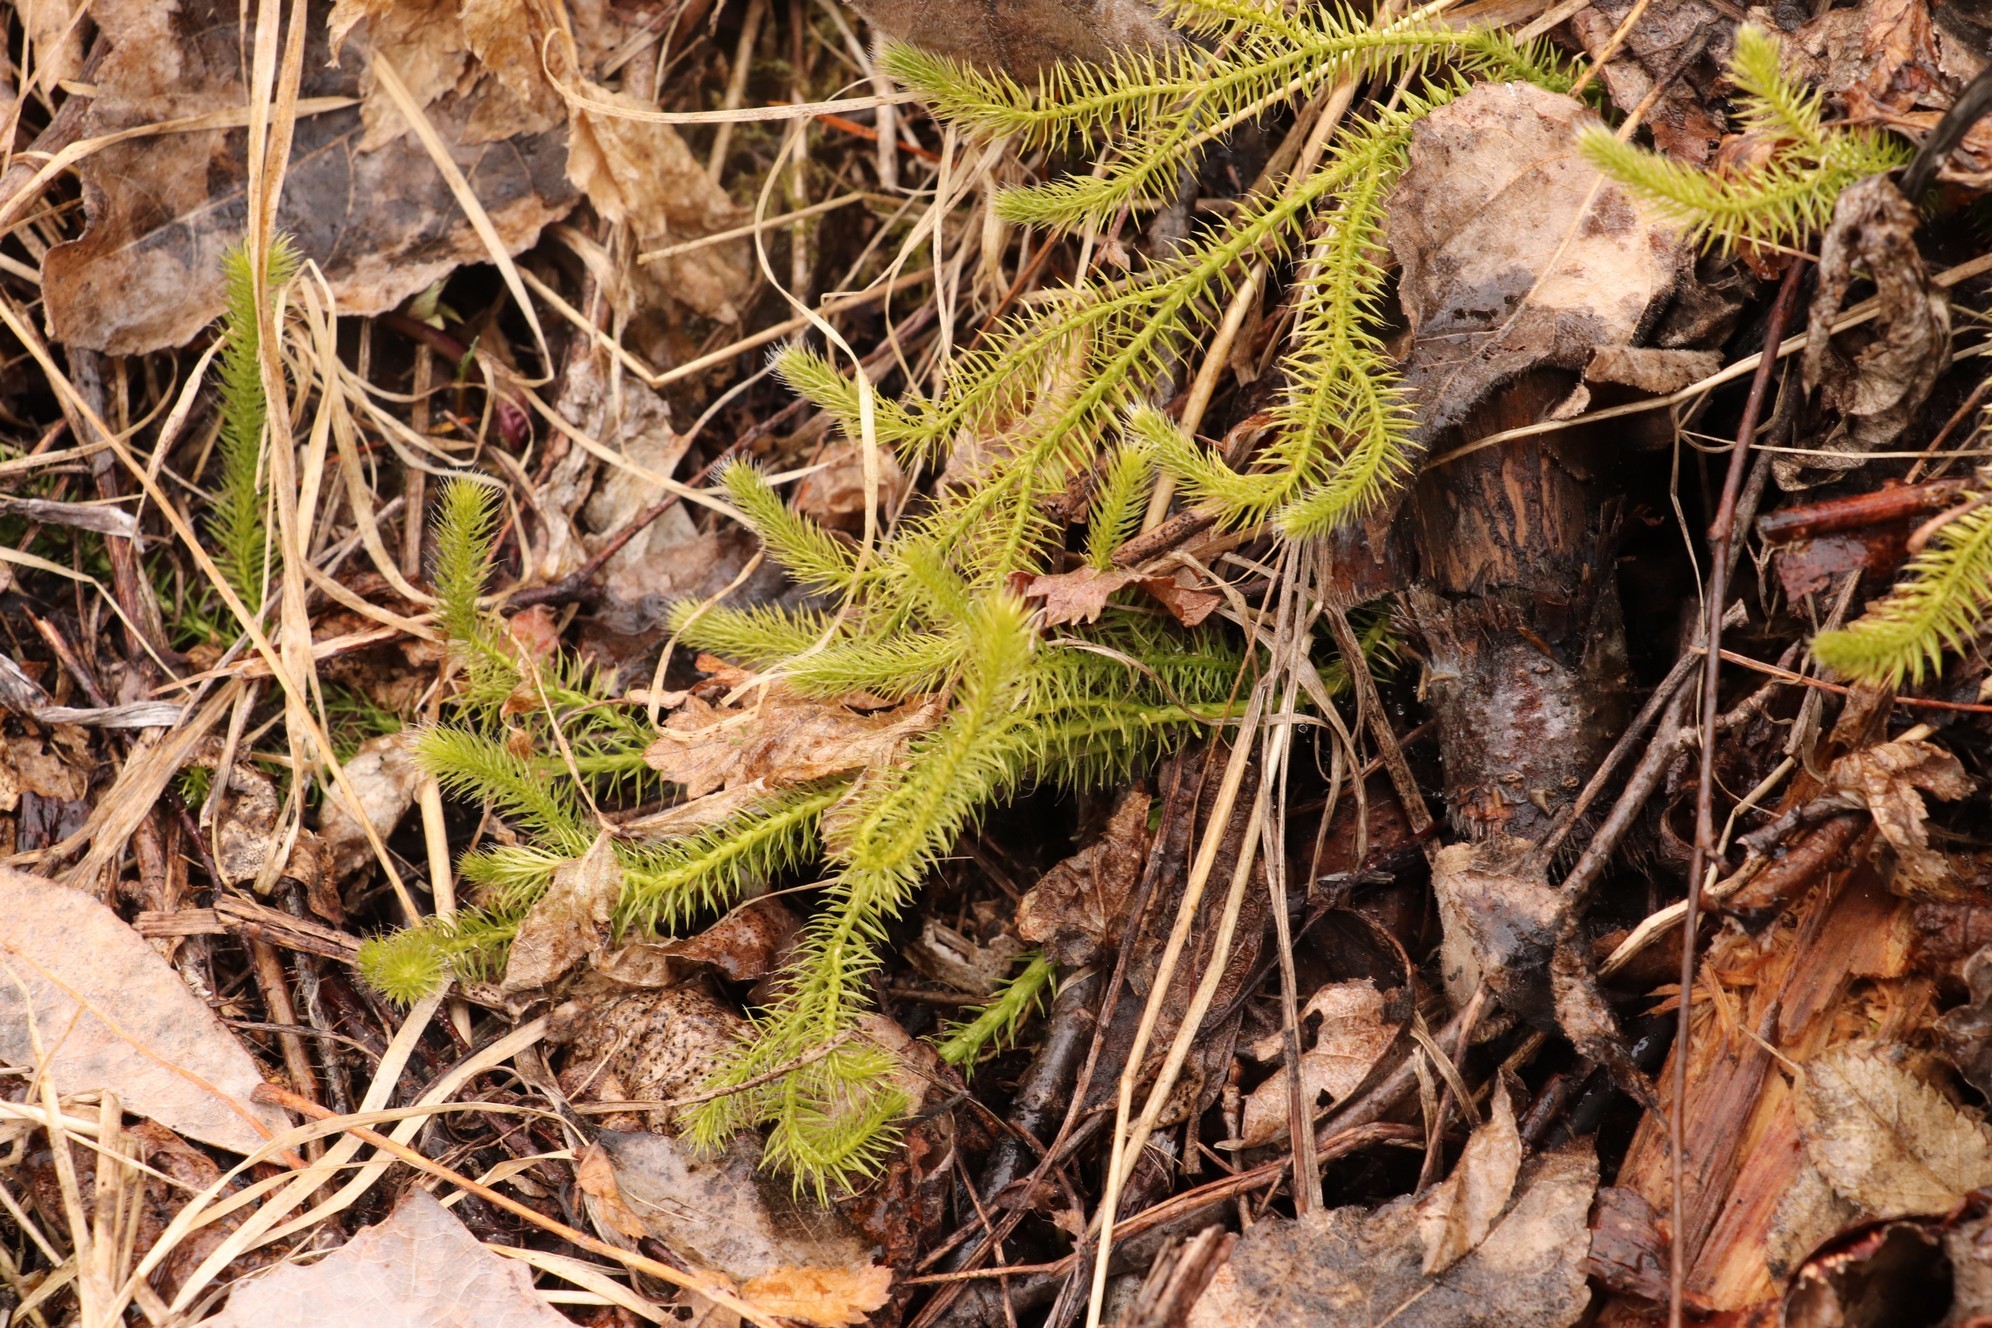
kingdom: Plantae
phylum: Tracheophyta
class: Lycopodiopsida
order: Lycopodiales
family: Lycopodiaceae
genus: Lycopodium
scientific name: Lycopodium clavatum
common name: Stag's-horn clubmoss
